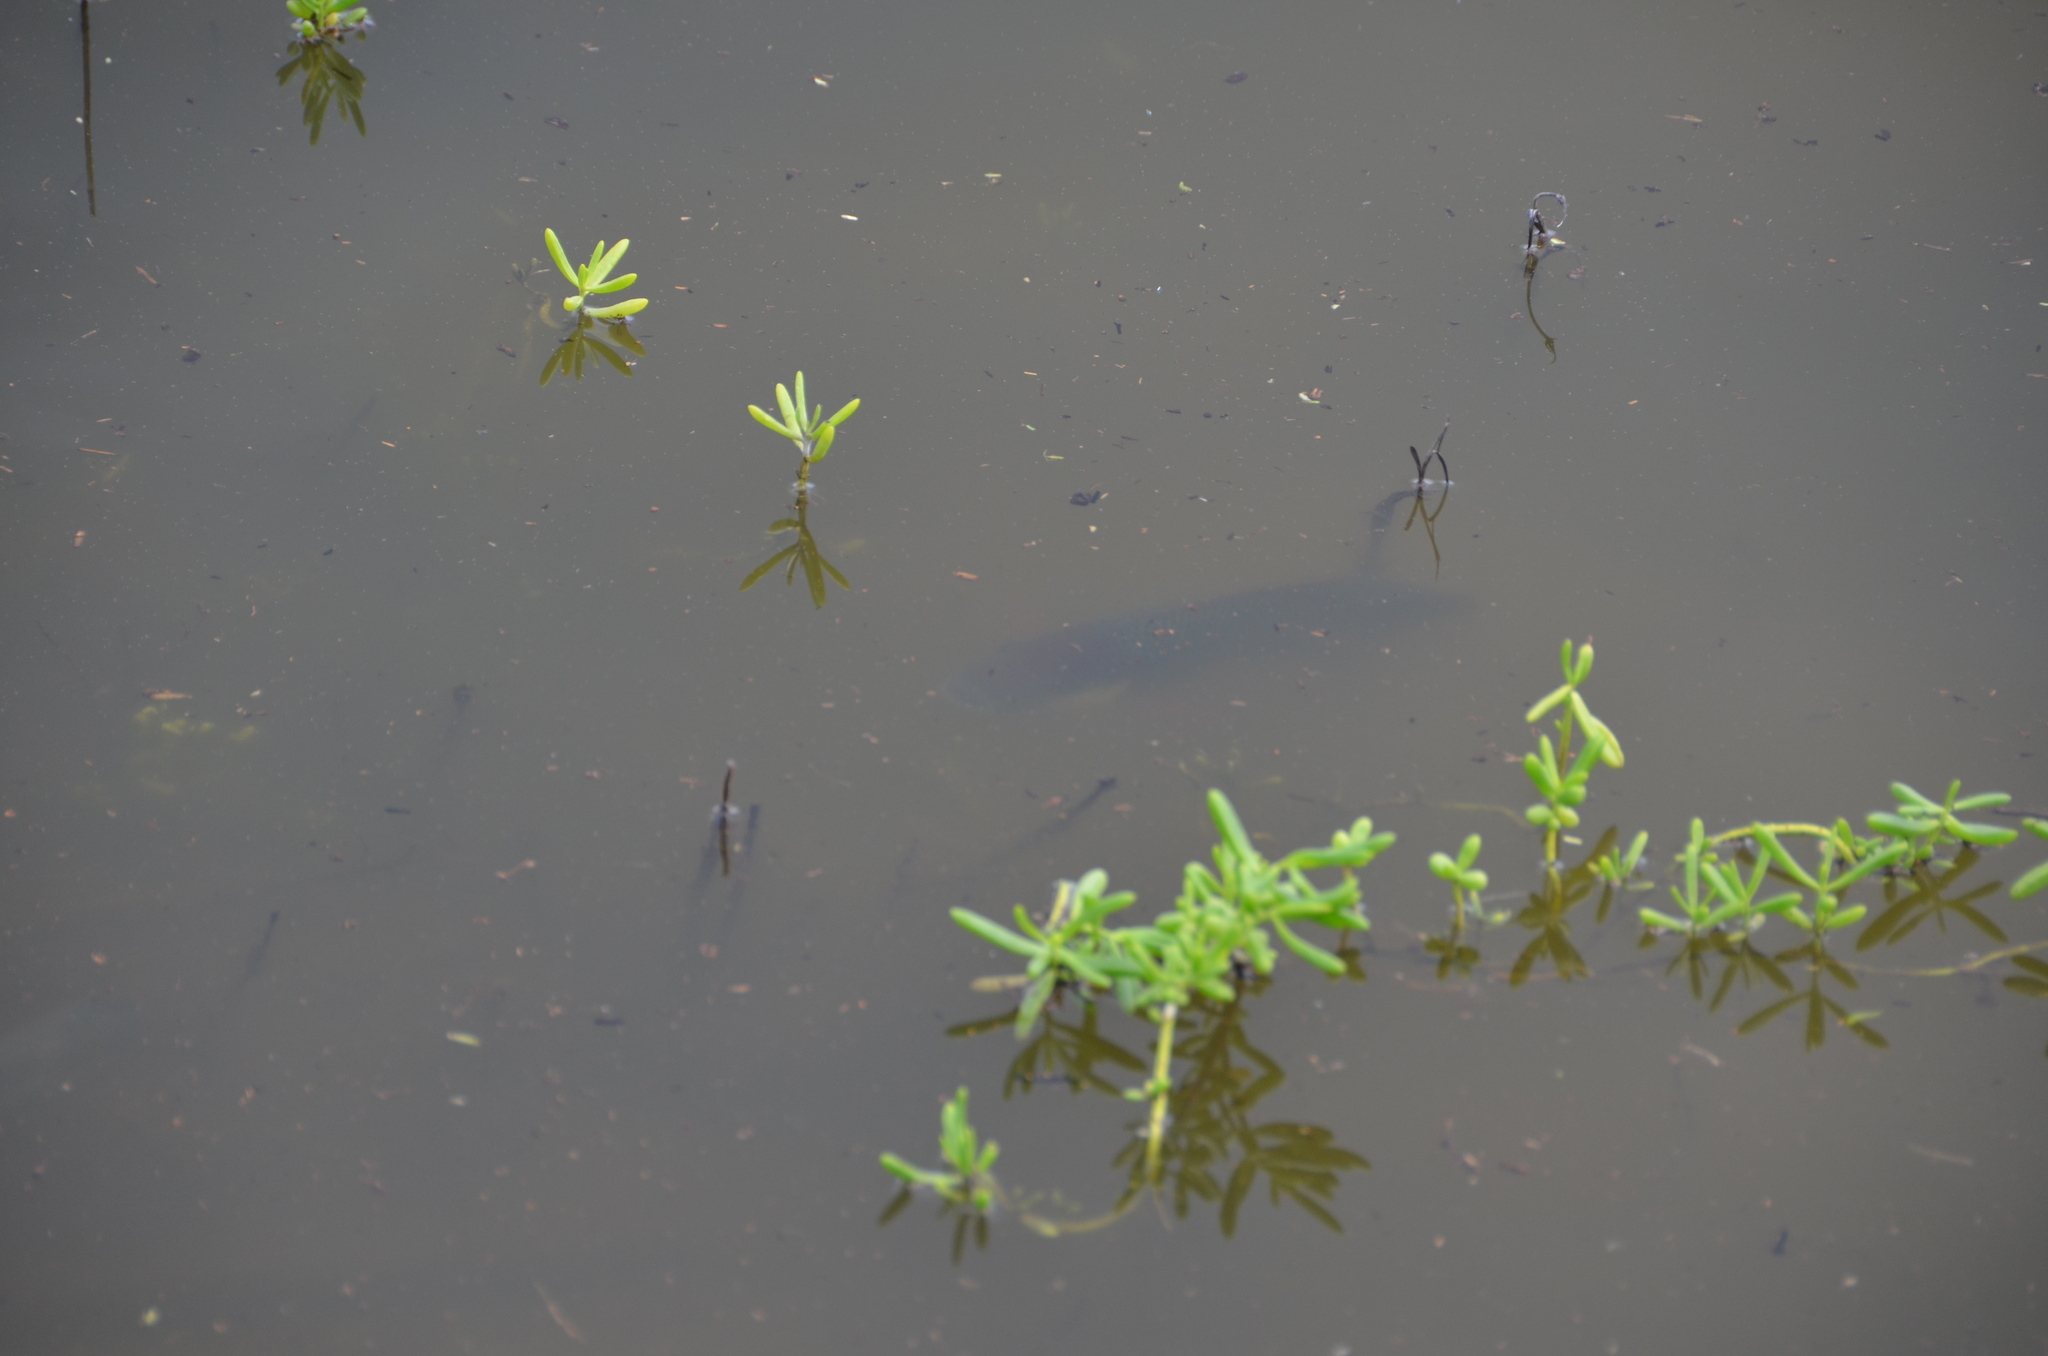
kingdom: Animalia
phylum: Chordata
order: Perciformes
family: Cichlidae
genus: Oreochromis
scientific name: Oreochromis mossambicus
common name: Mozambique tilapia
